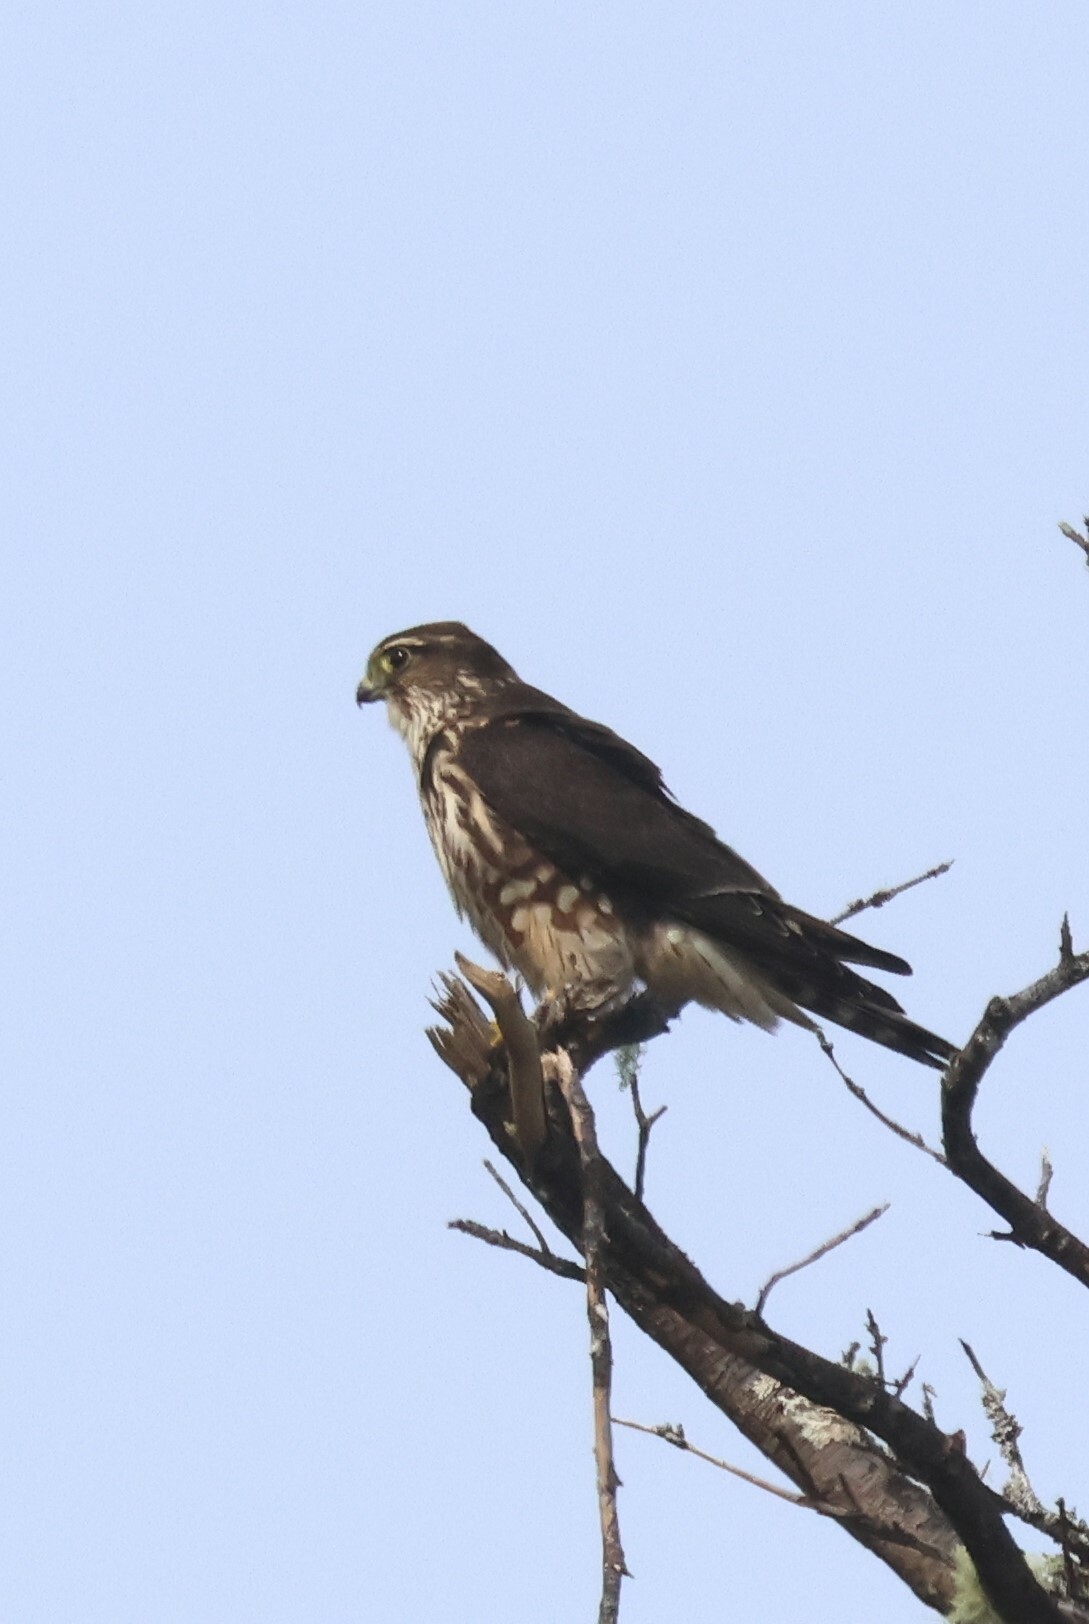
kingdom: Animalia
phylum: Chordata
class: Aves
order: Falconiformes
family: Falconidae
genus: Falco
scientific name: Falco columbarius
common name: Merlin
